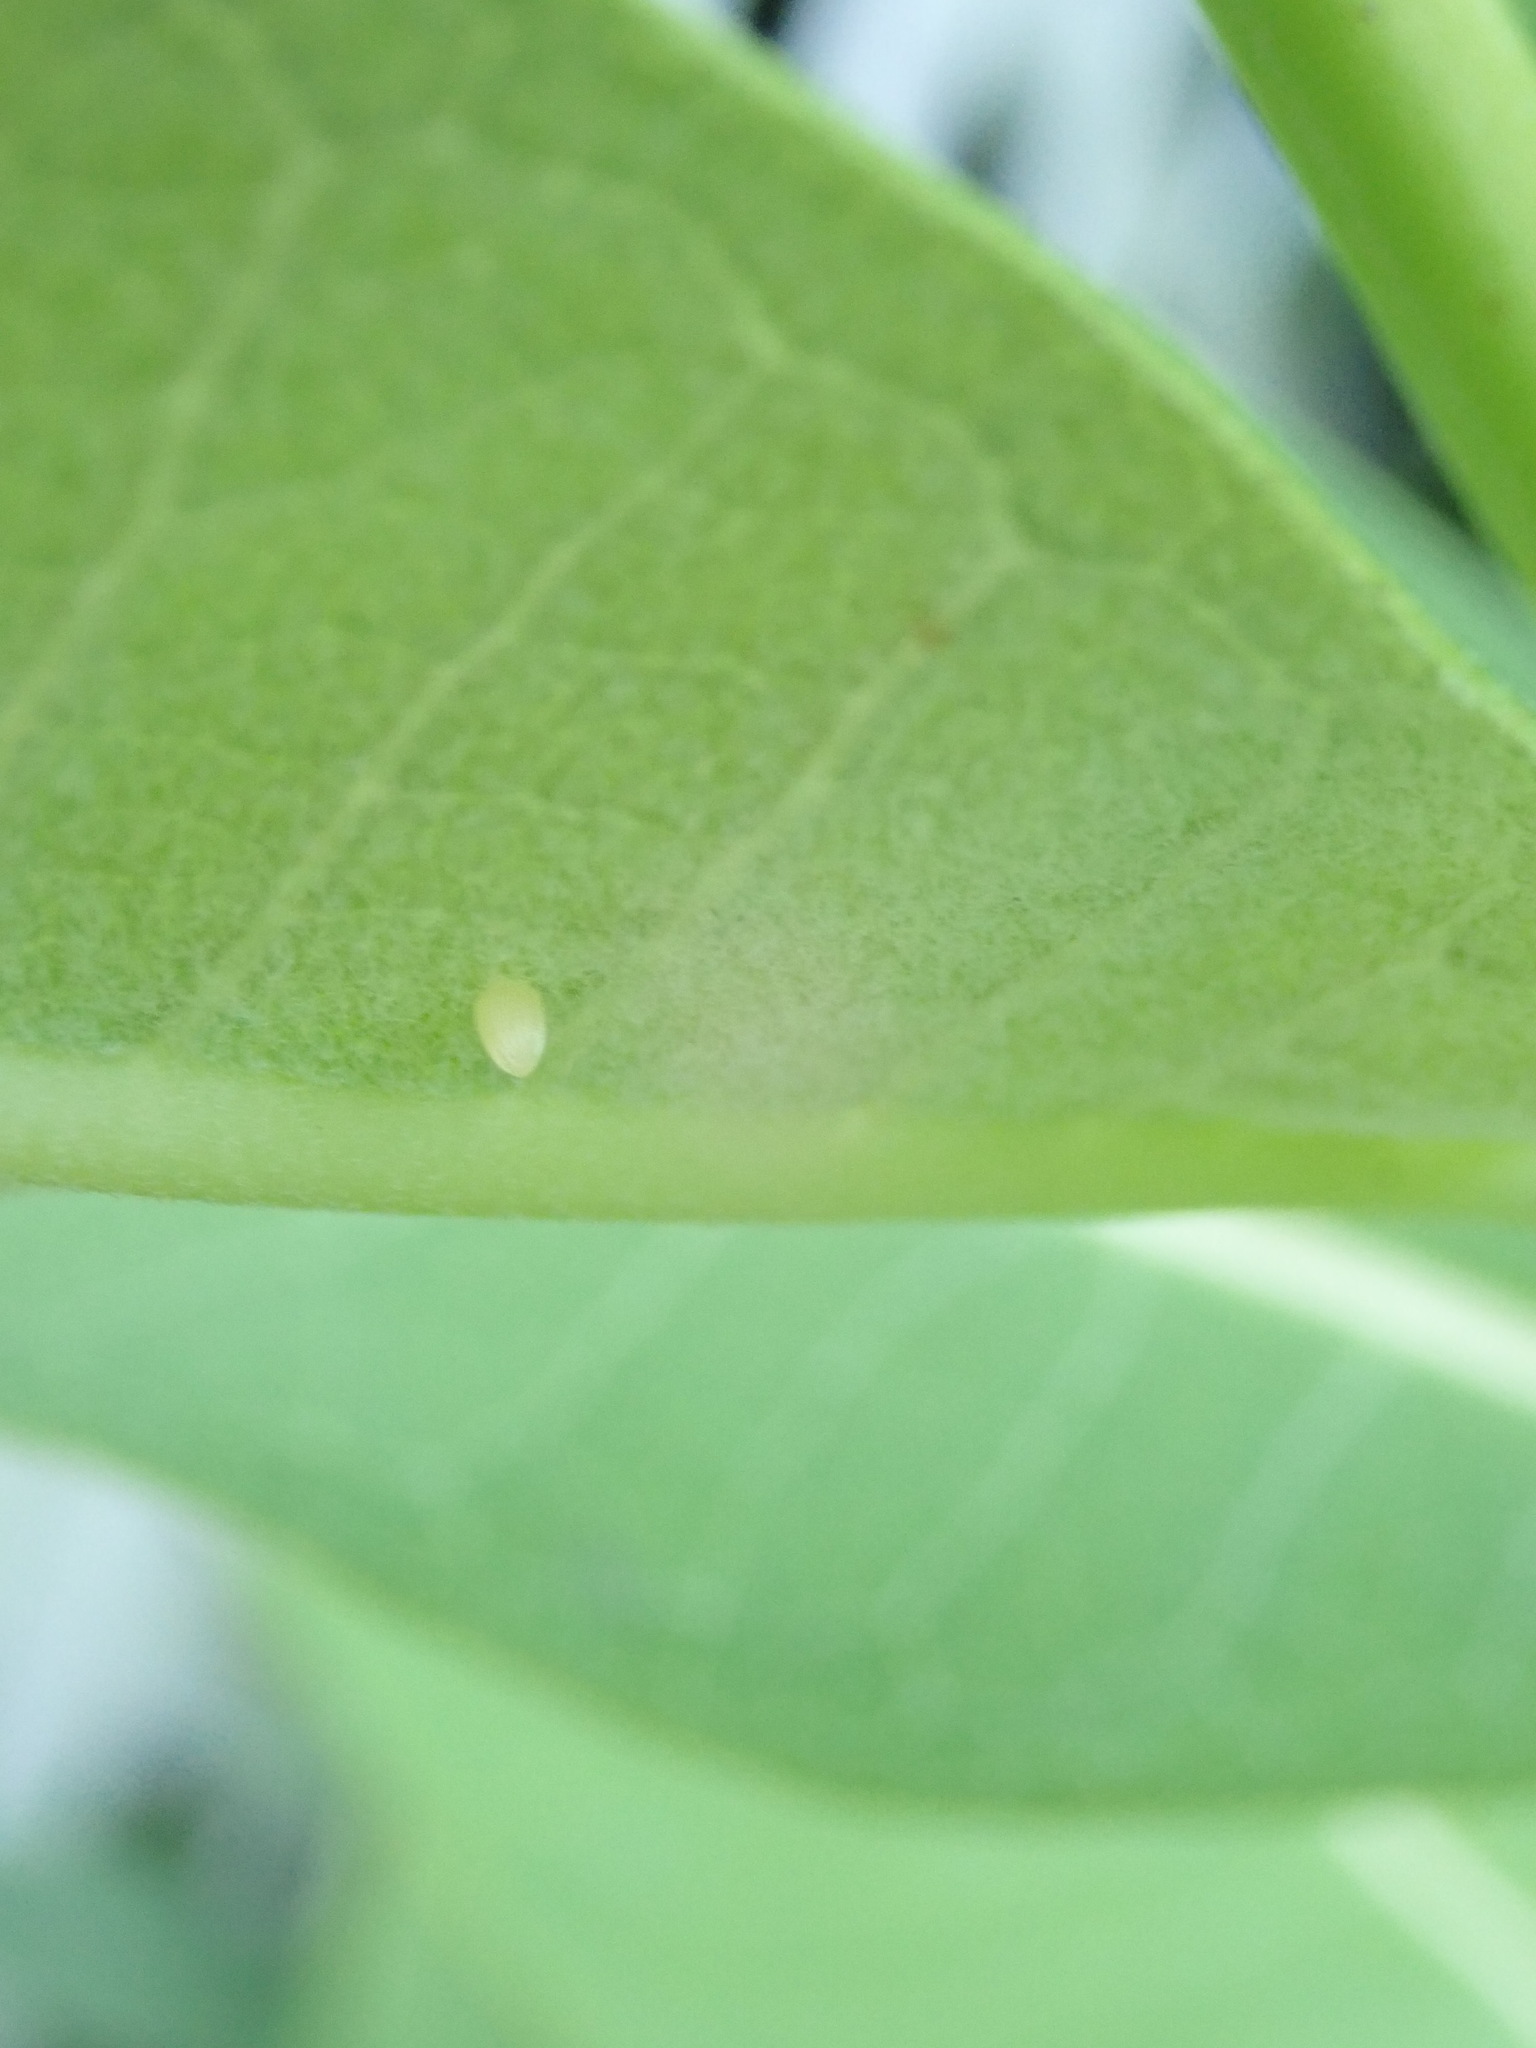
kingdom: Animalia
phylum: Arthropoda
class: Insecta
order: Lepidoptera
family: Nymphalidae
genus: Danaus
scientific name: Danaus plexippus
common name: Monarch
